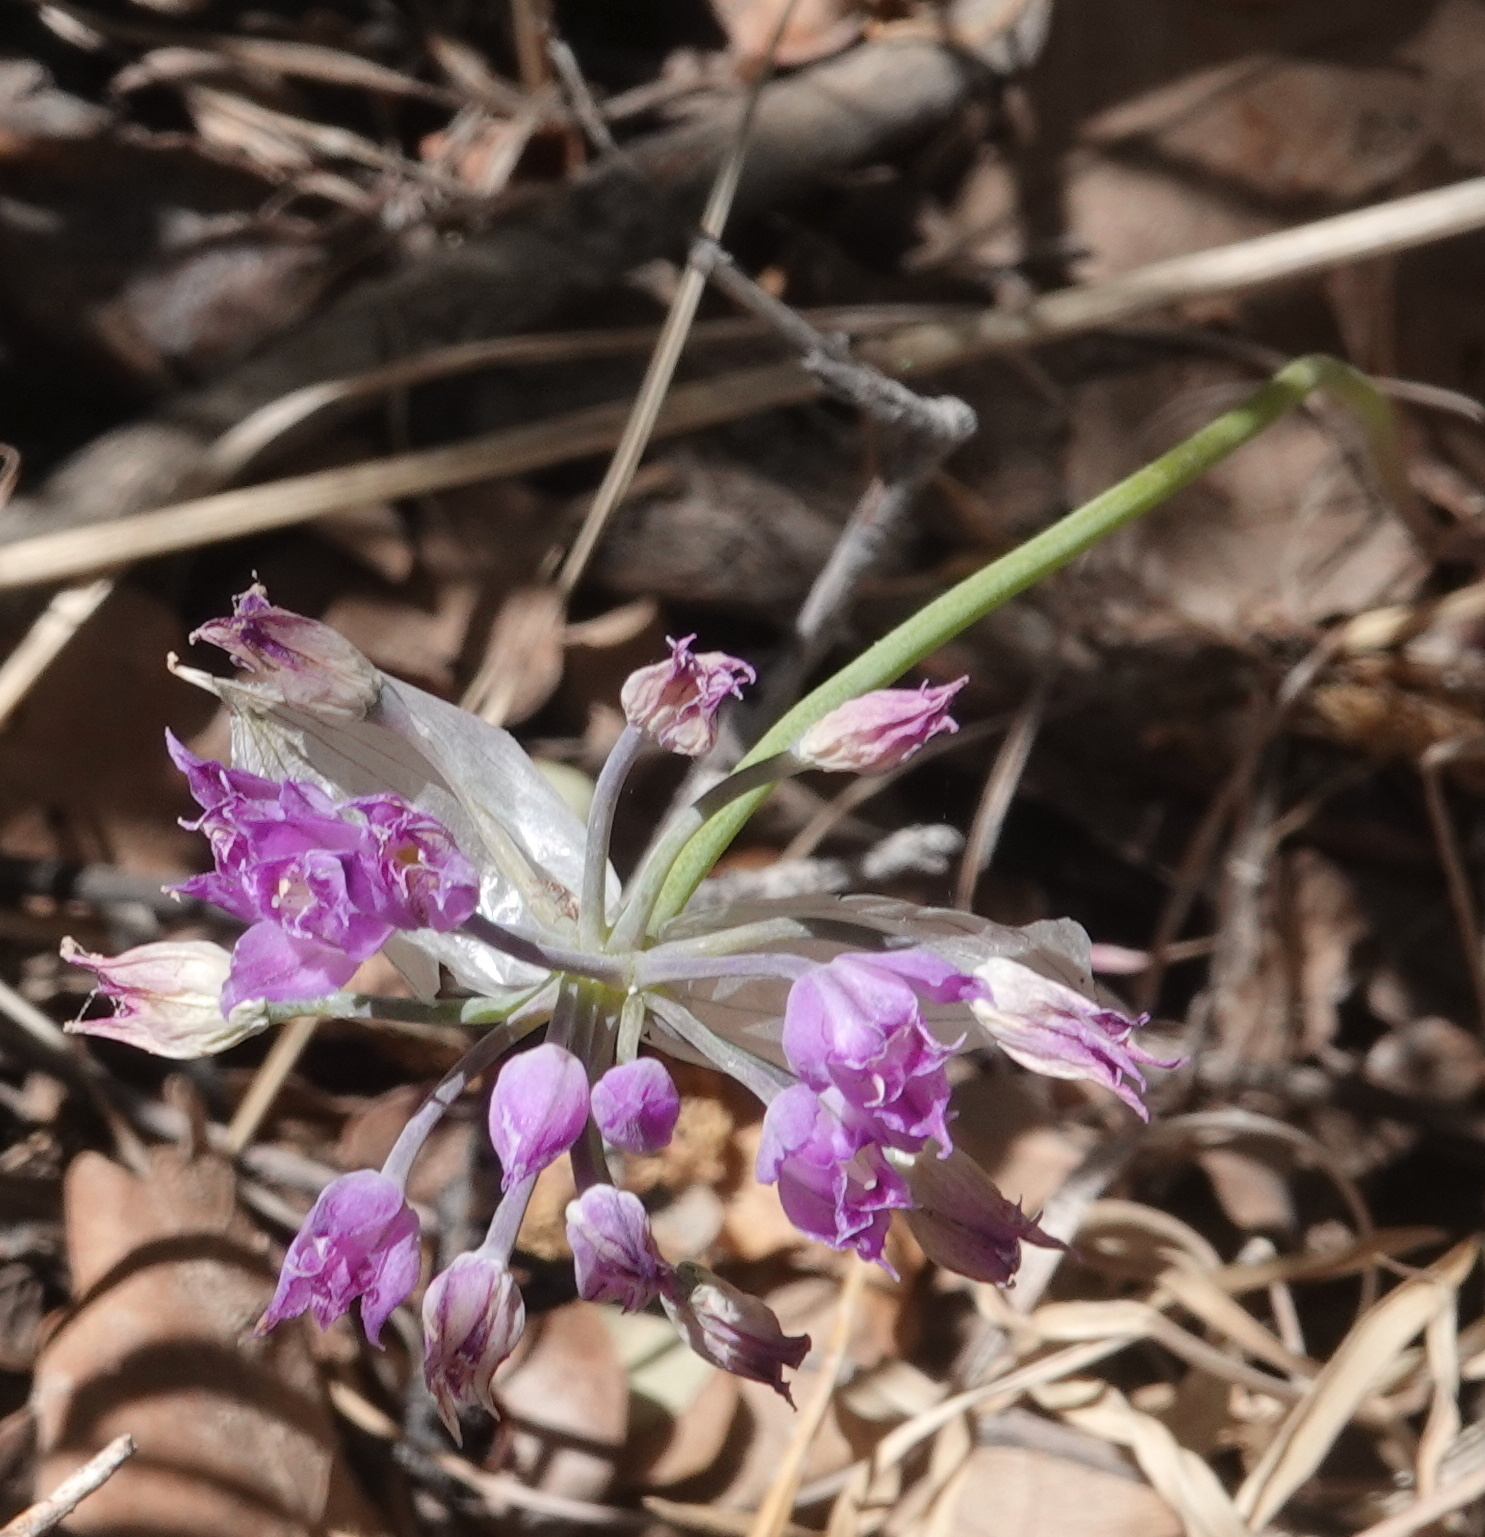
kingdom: Plantae
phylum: Tracheophyta
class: Liliopsida
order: Asparagales
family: Amaryllidaceae
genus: Allium
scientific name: Allium acuminatum
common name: Hooker's onion
